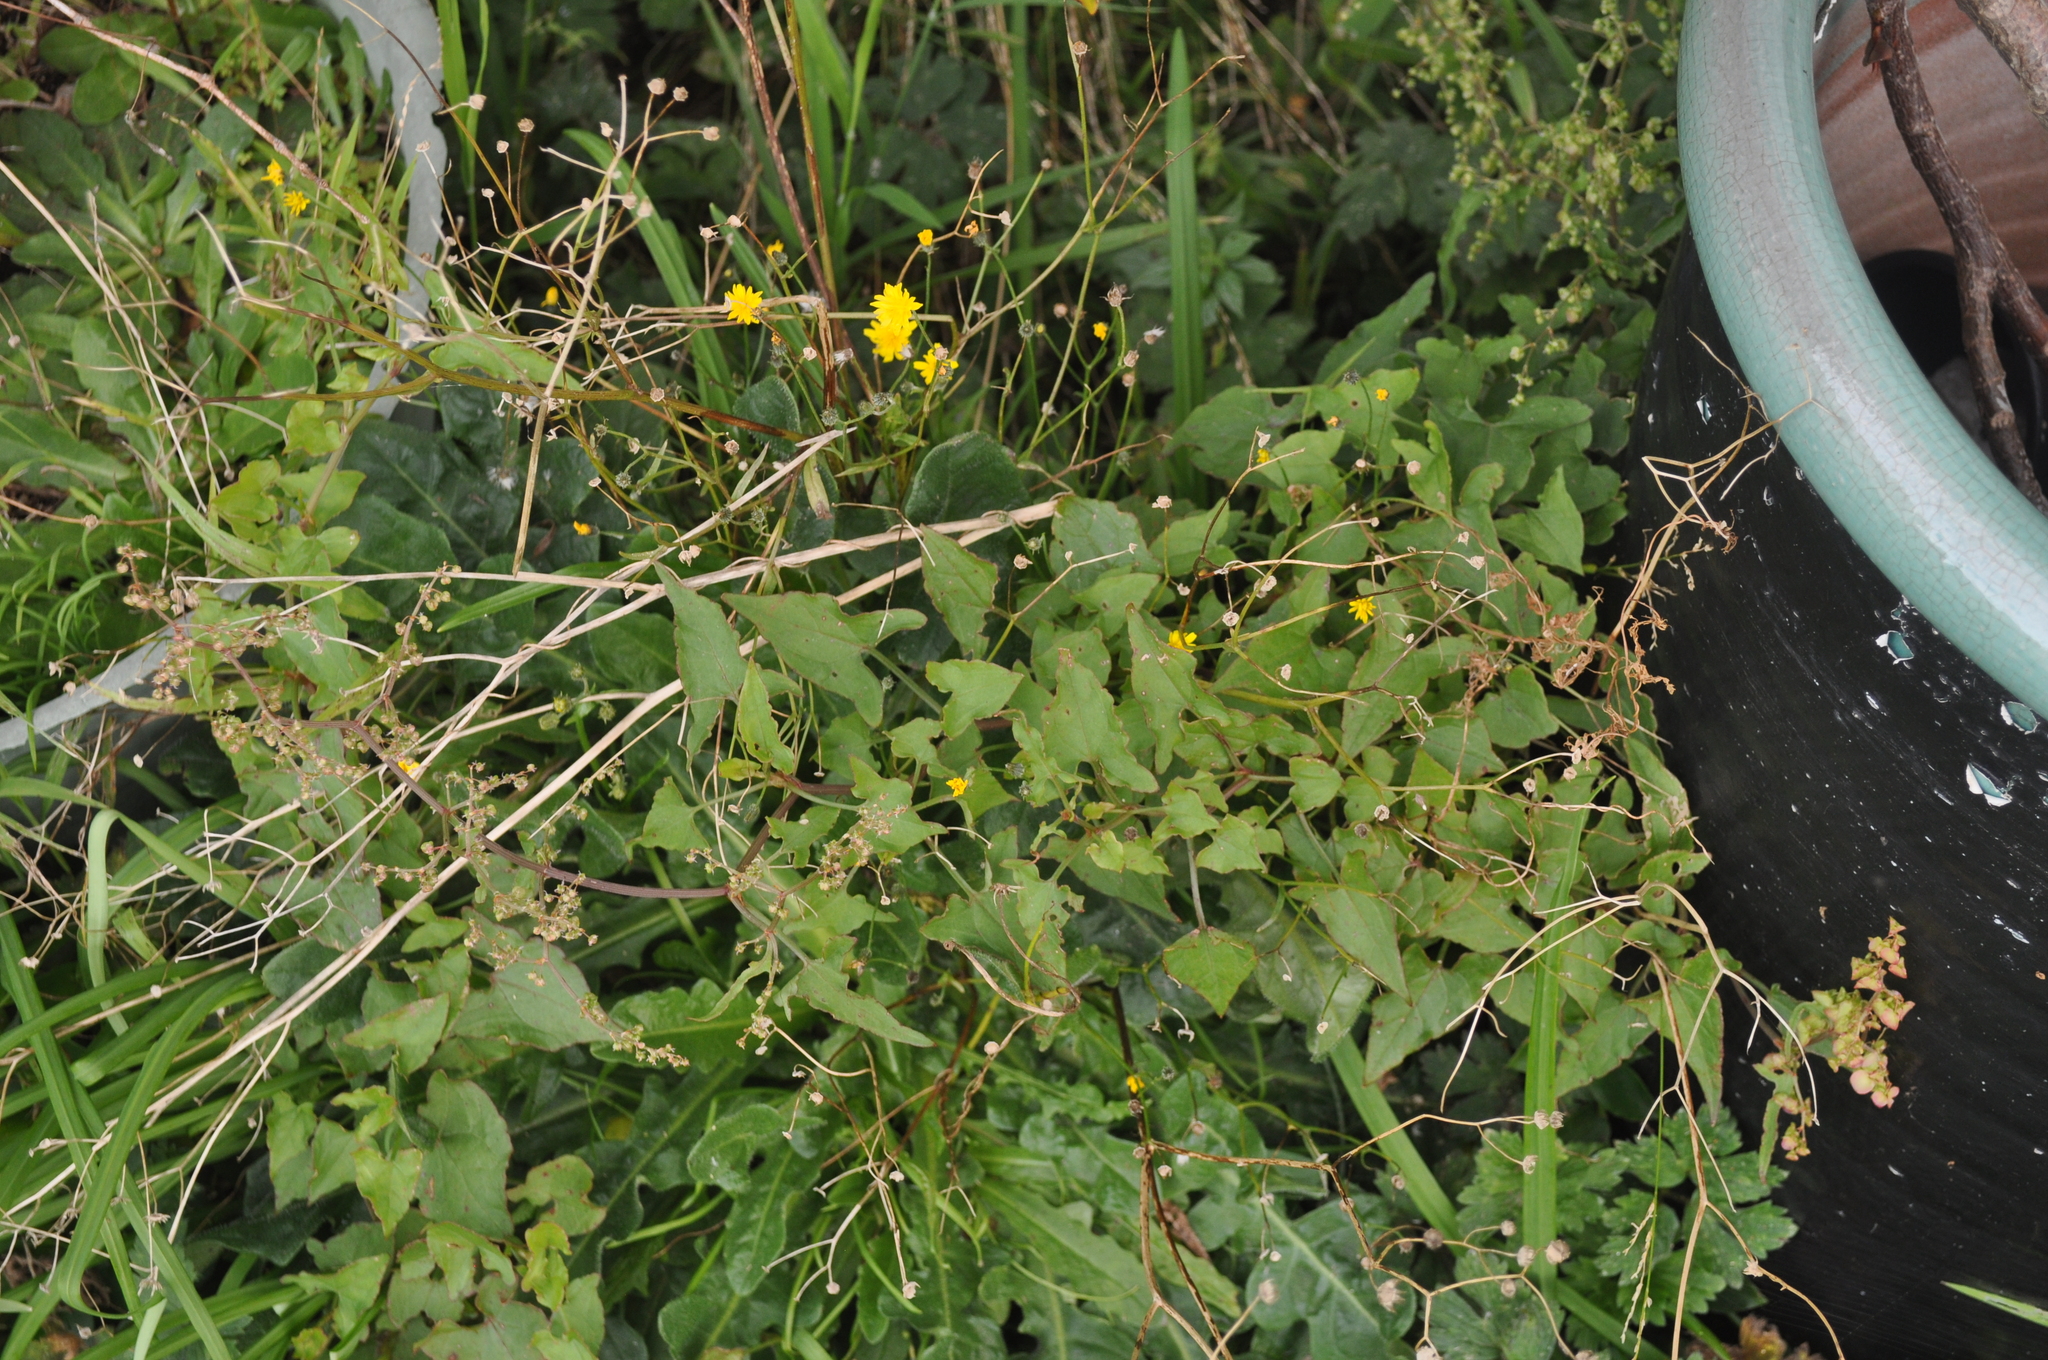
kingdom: Plantae
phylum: Tracheophyta
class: Magnoliopsida
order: Caryophyllales
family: Polygonaceae
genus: Rumex
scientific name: Rumex sagittatus
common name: Climbing dock
